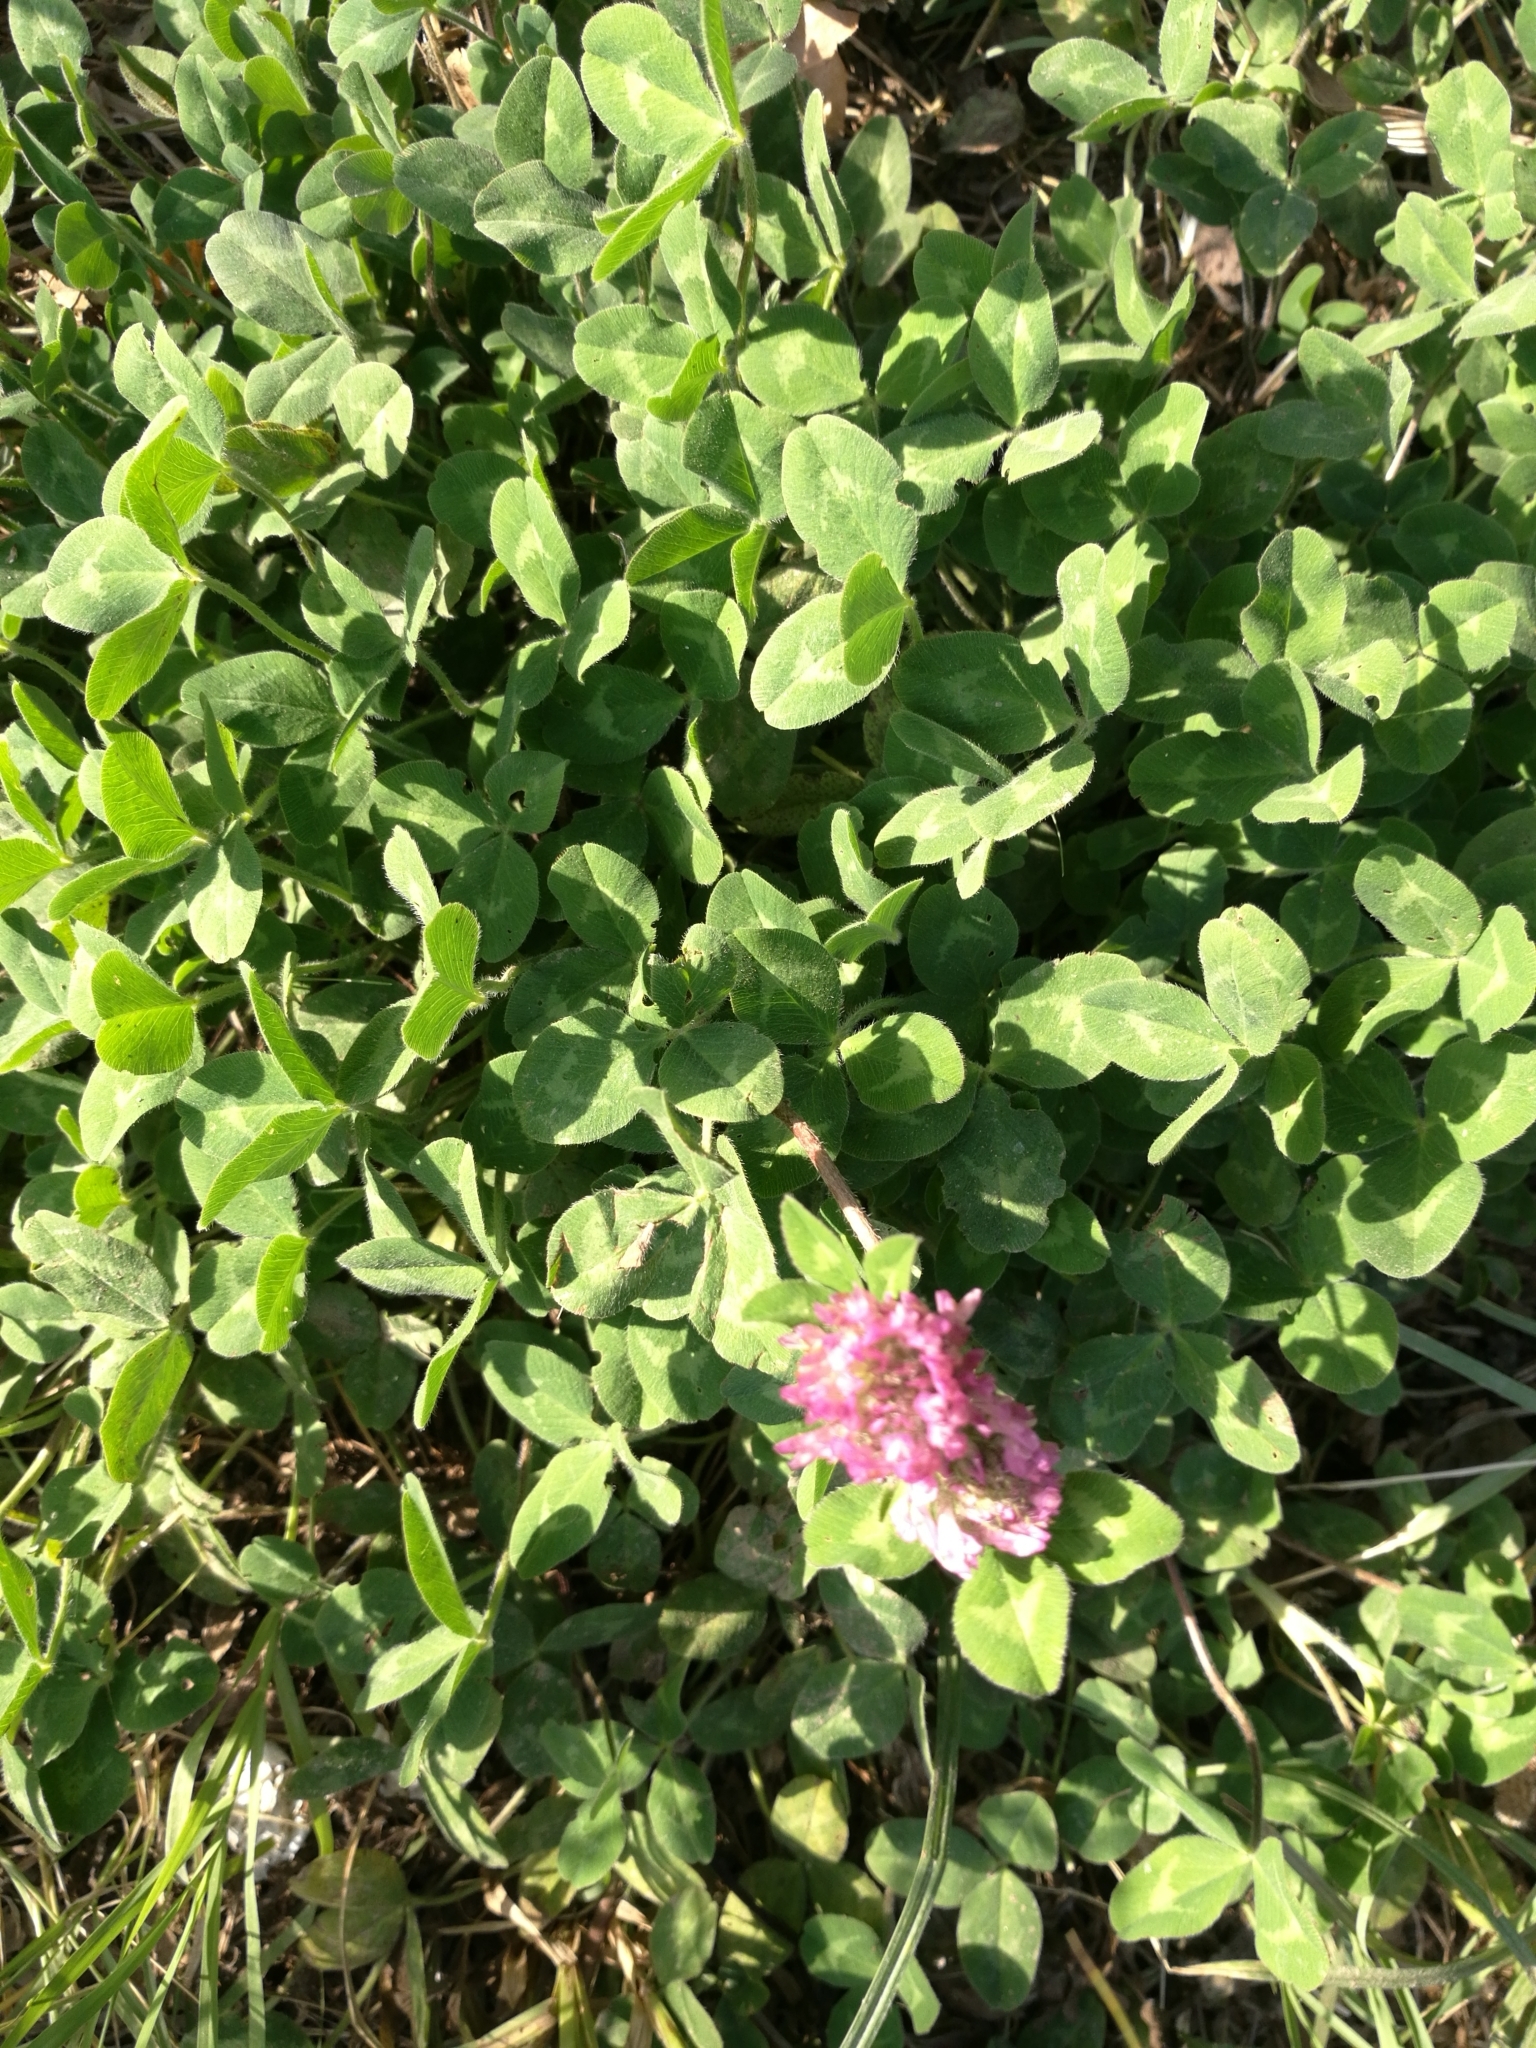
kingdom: Plantae
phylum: Tracheophyta
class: Magnoliopsida
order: Fabales
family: Fabaceae
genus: Trifolium
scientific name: Trifolium pratense
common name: Red clover
